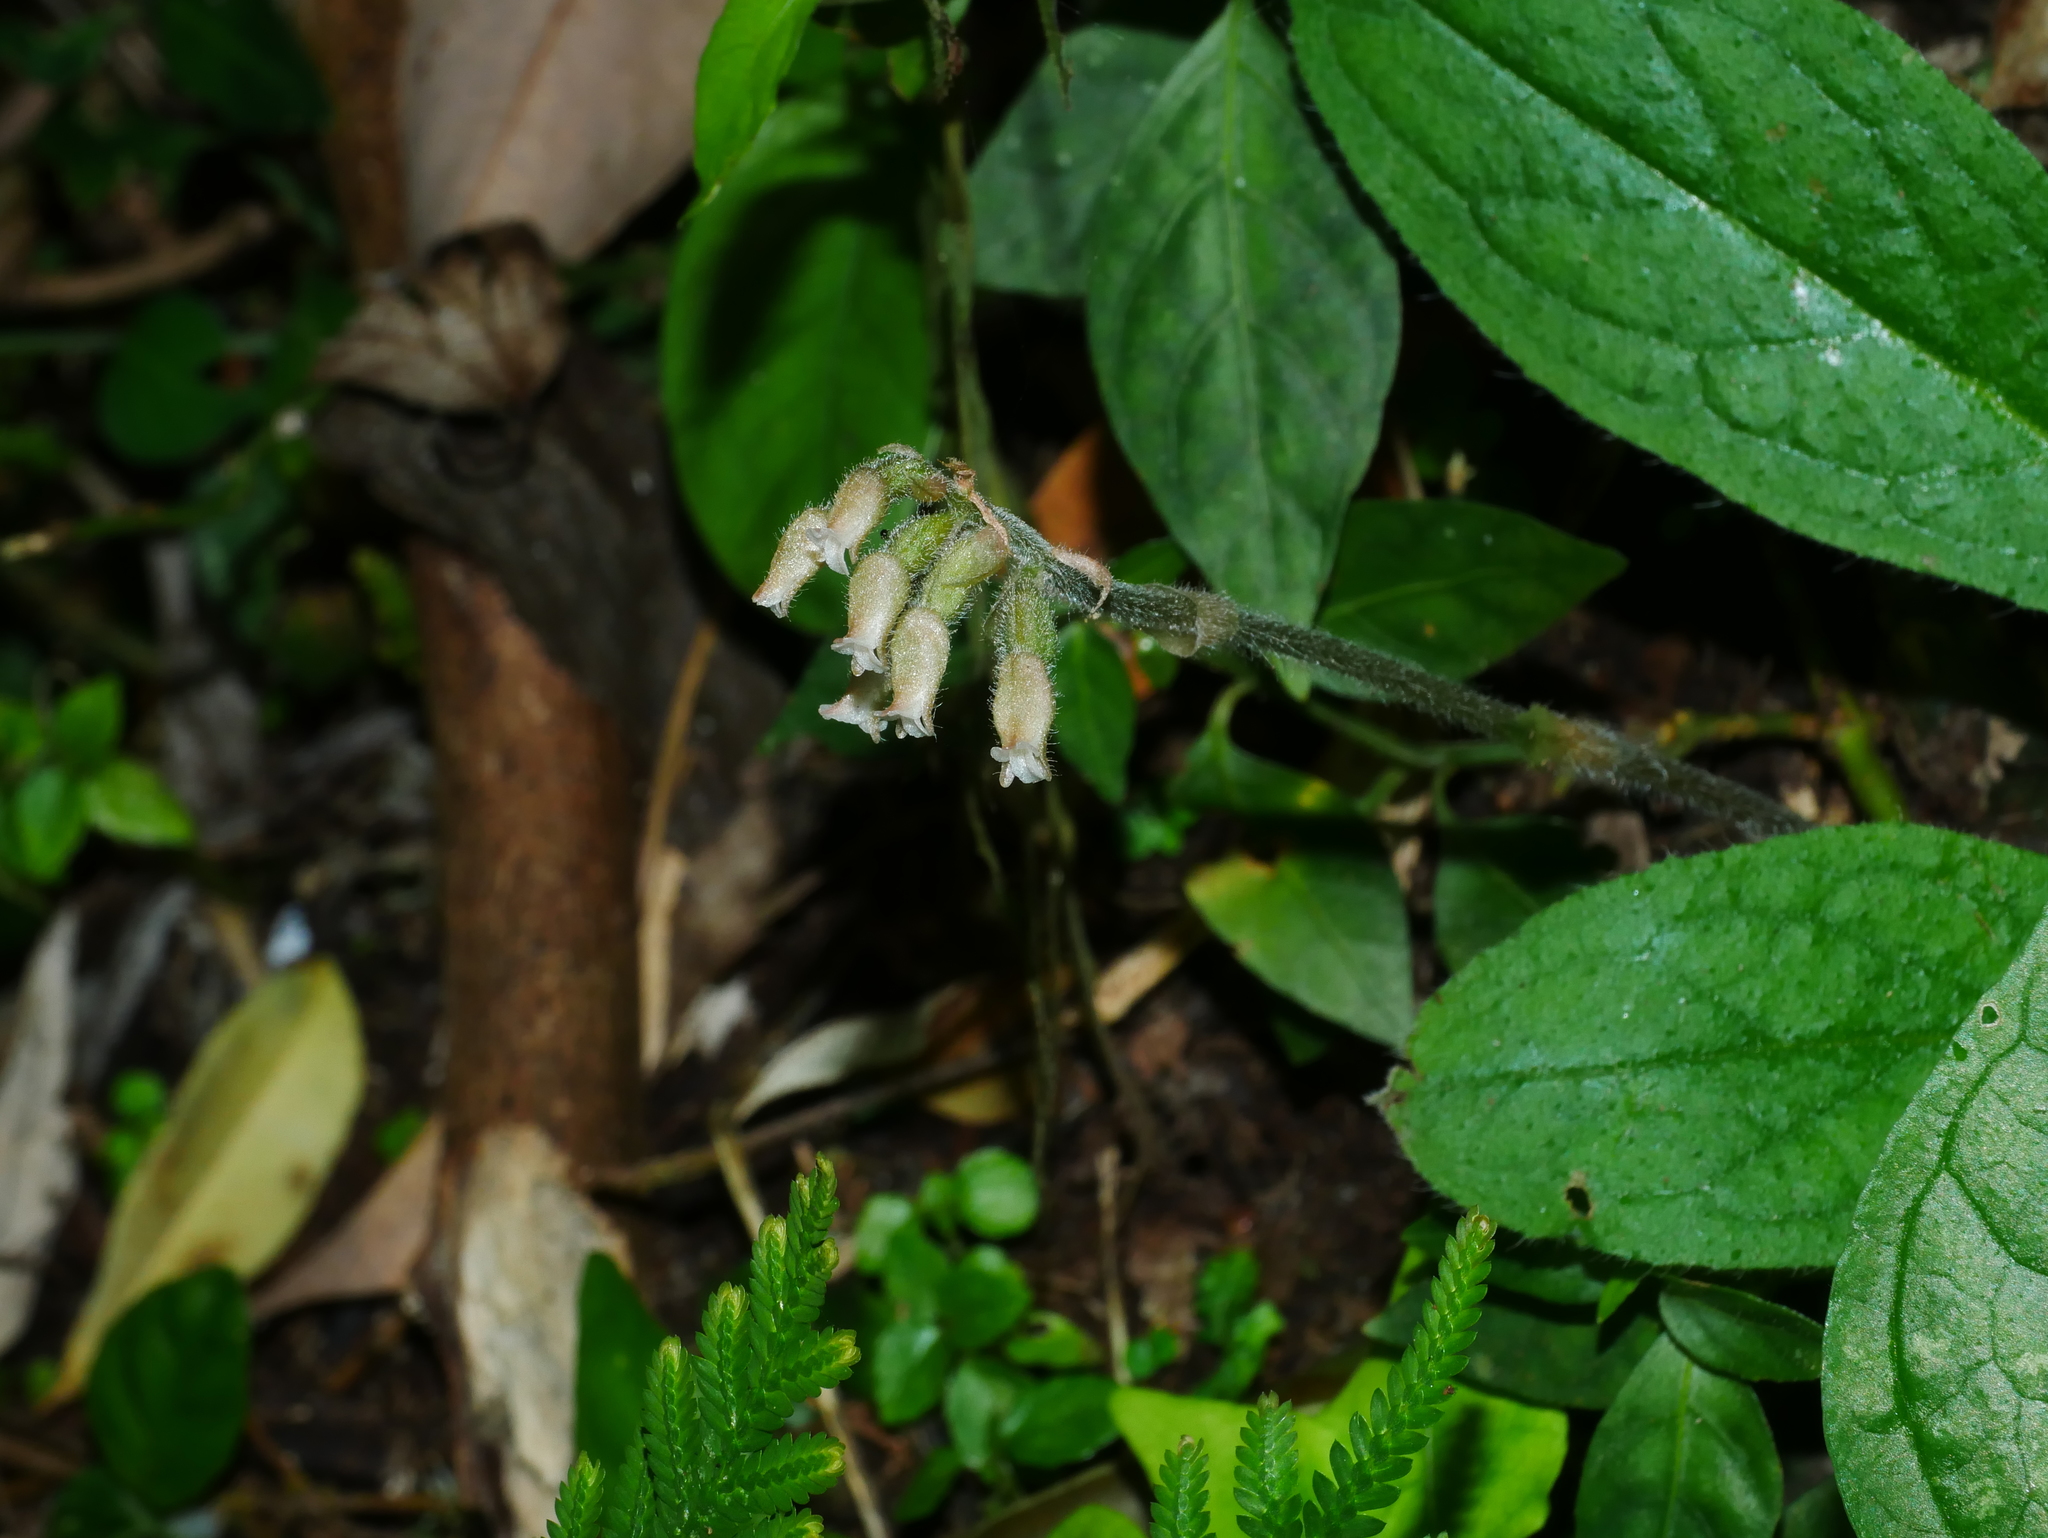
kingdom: Plantae
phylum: Tracheophyta
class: Liliopsida
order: Asparagales
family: Orchidaceae
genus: Cheirostylis
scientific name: Cheirostylis takeoi
